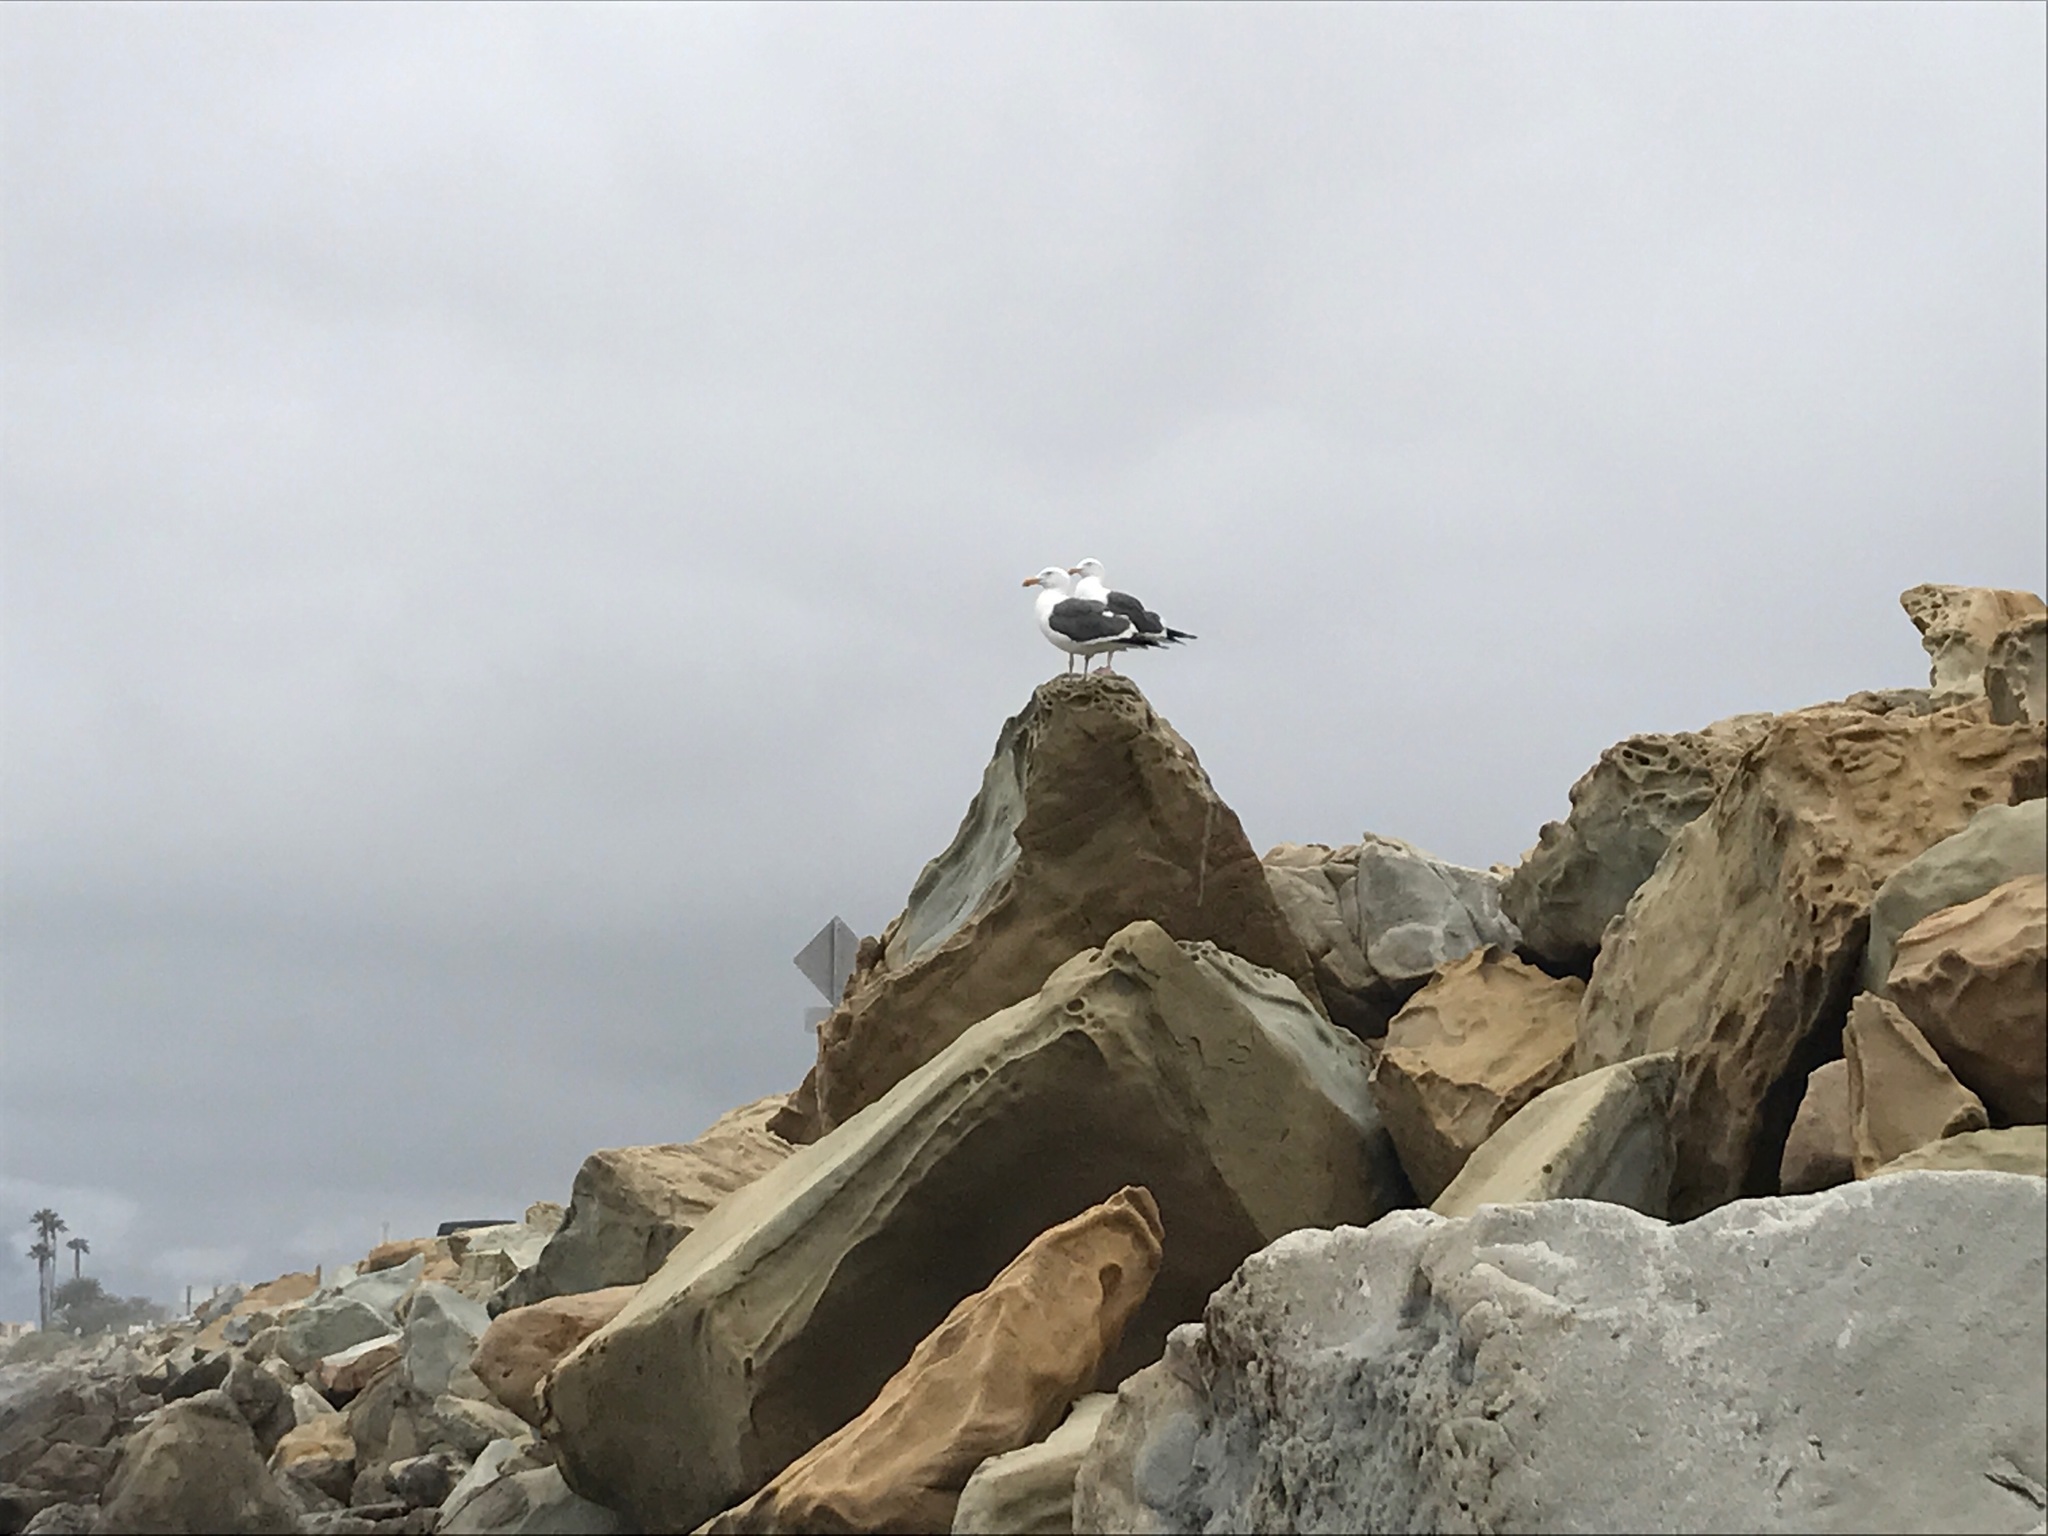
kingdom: Animalia
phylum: Chordata
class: Aves
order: Charadriiformes
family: Laridae
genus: Larus
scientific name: Larus occidentalis
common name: Western gull
